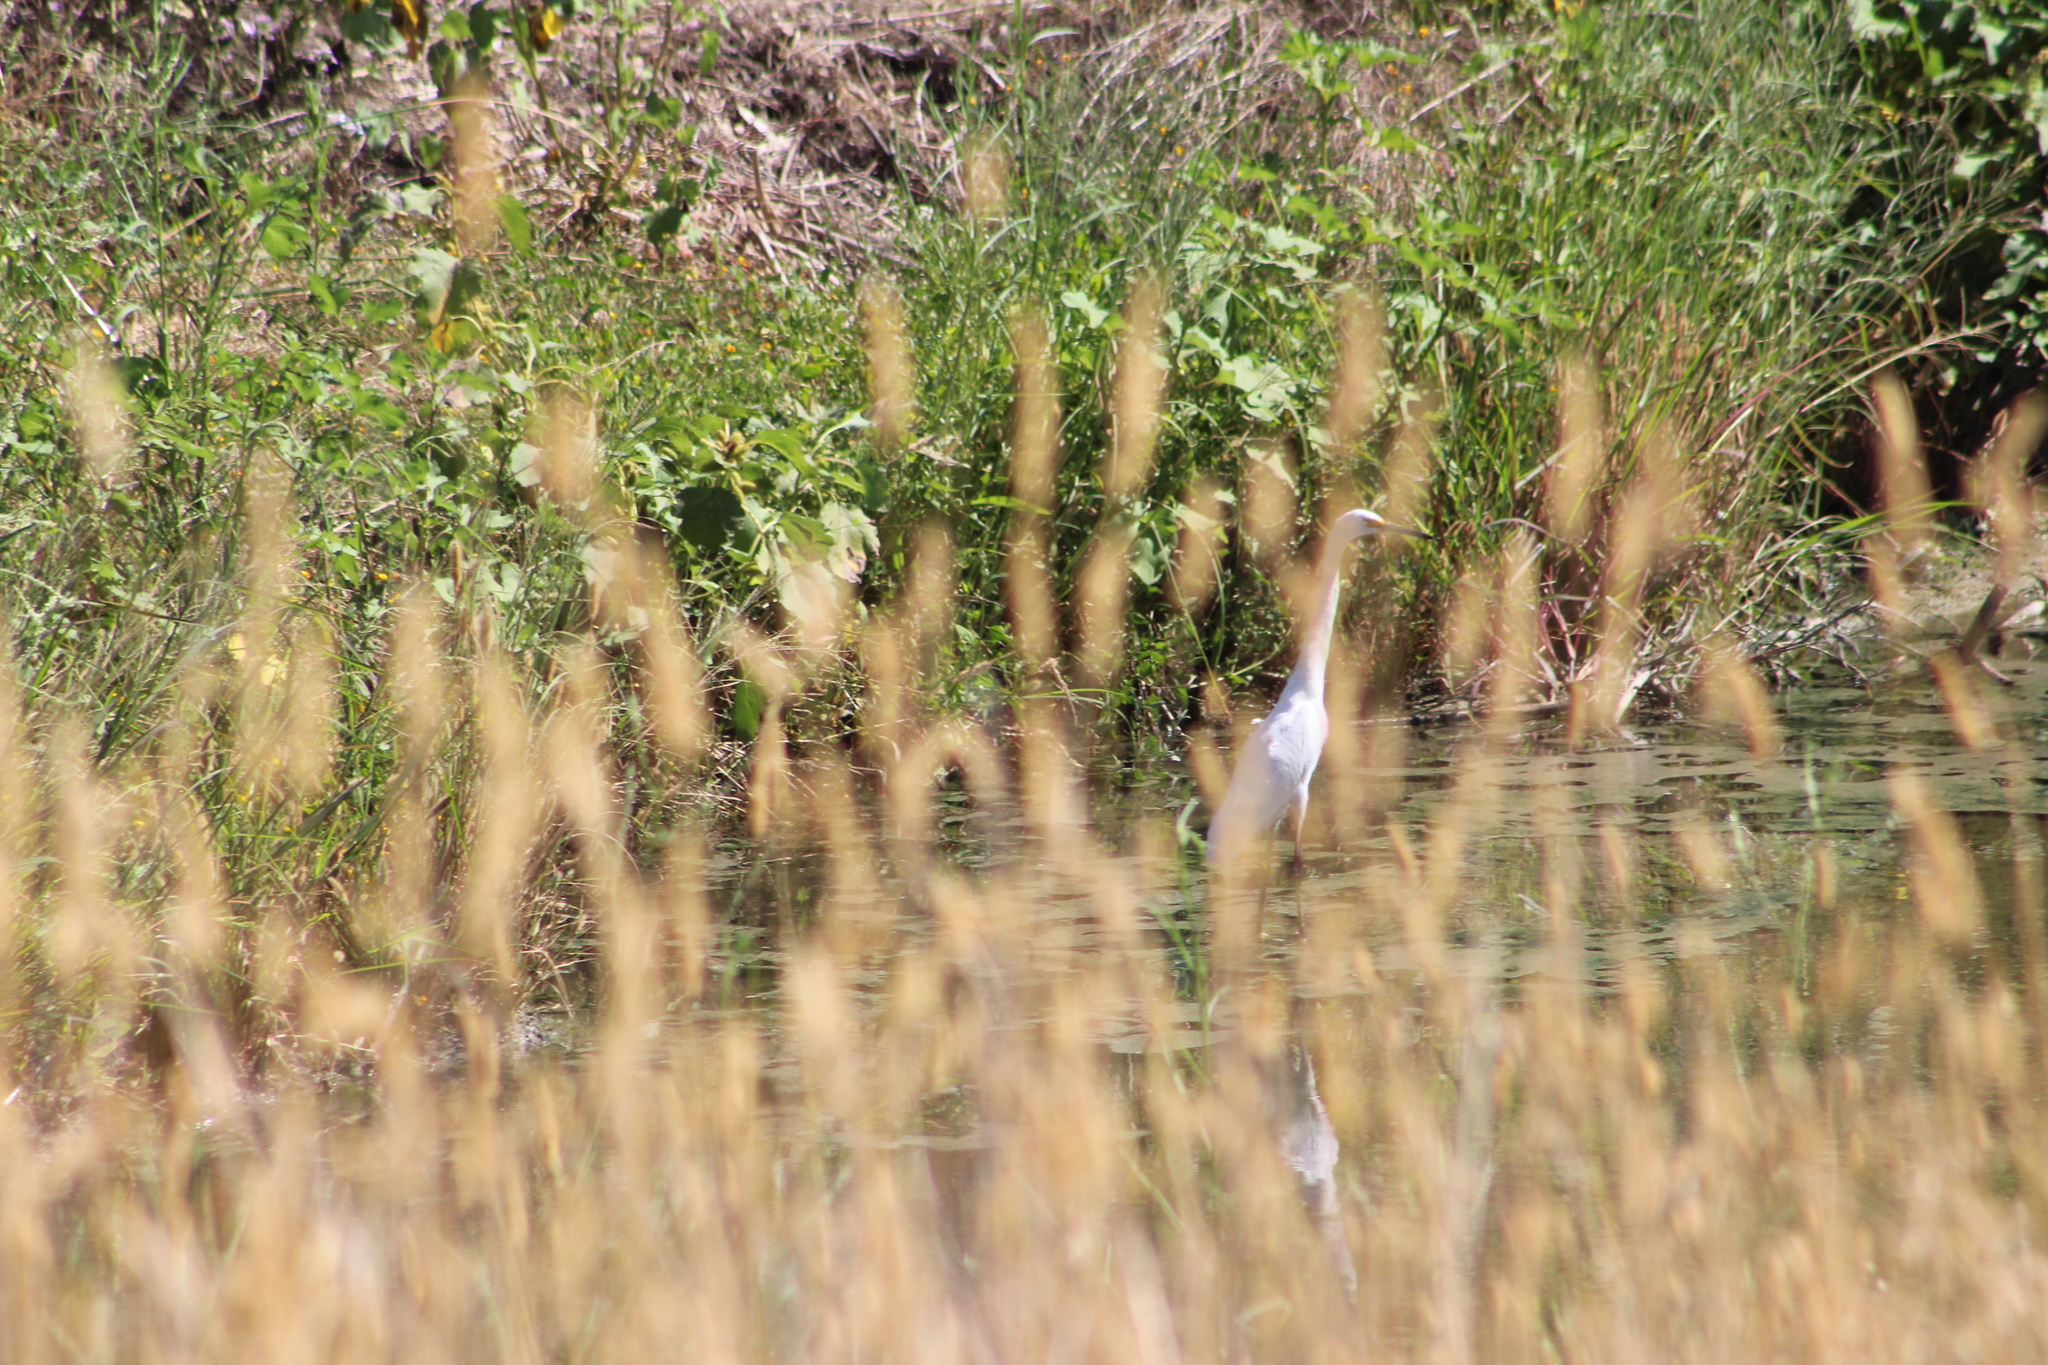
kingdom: Animalia
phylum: Chordata
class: Aves
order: Pelecaniformes
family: Ardeidae
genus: Egretta
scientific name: Egretta thula
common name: Snowy egret
